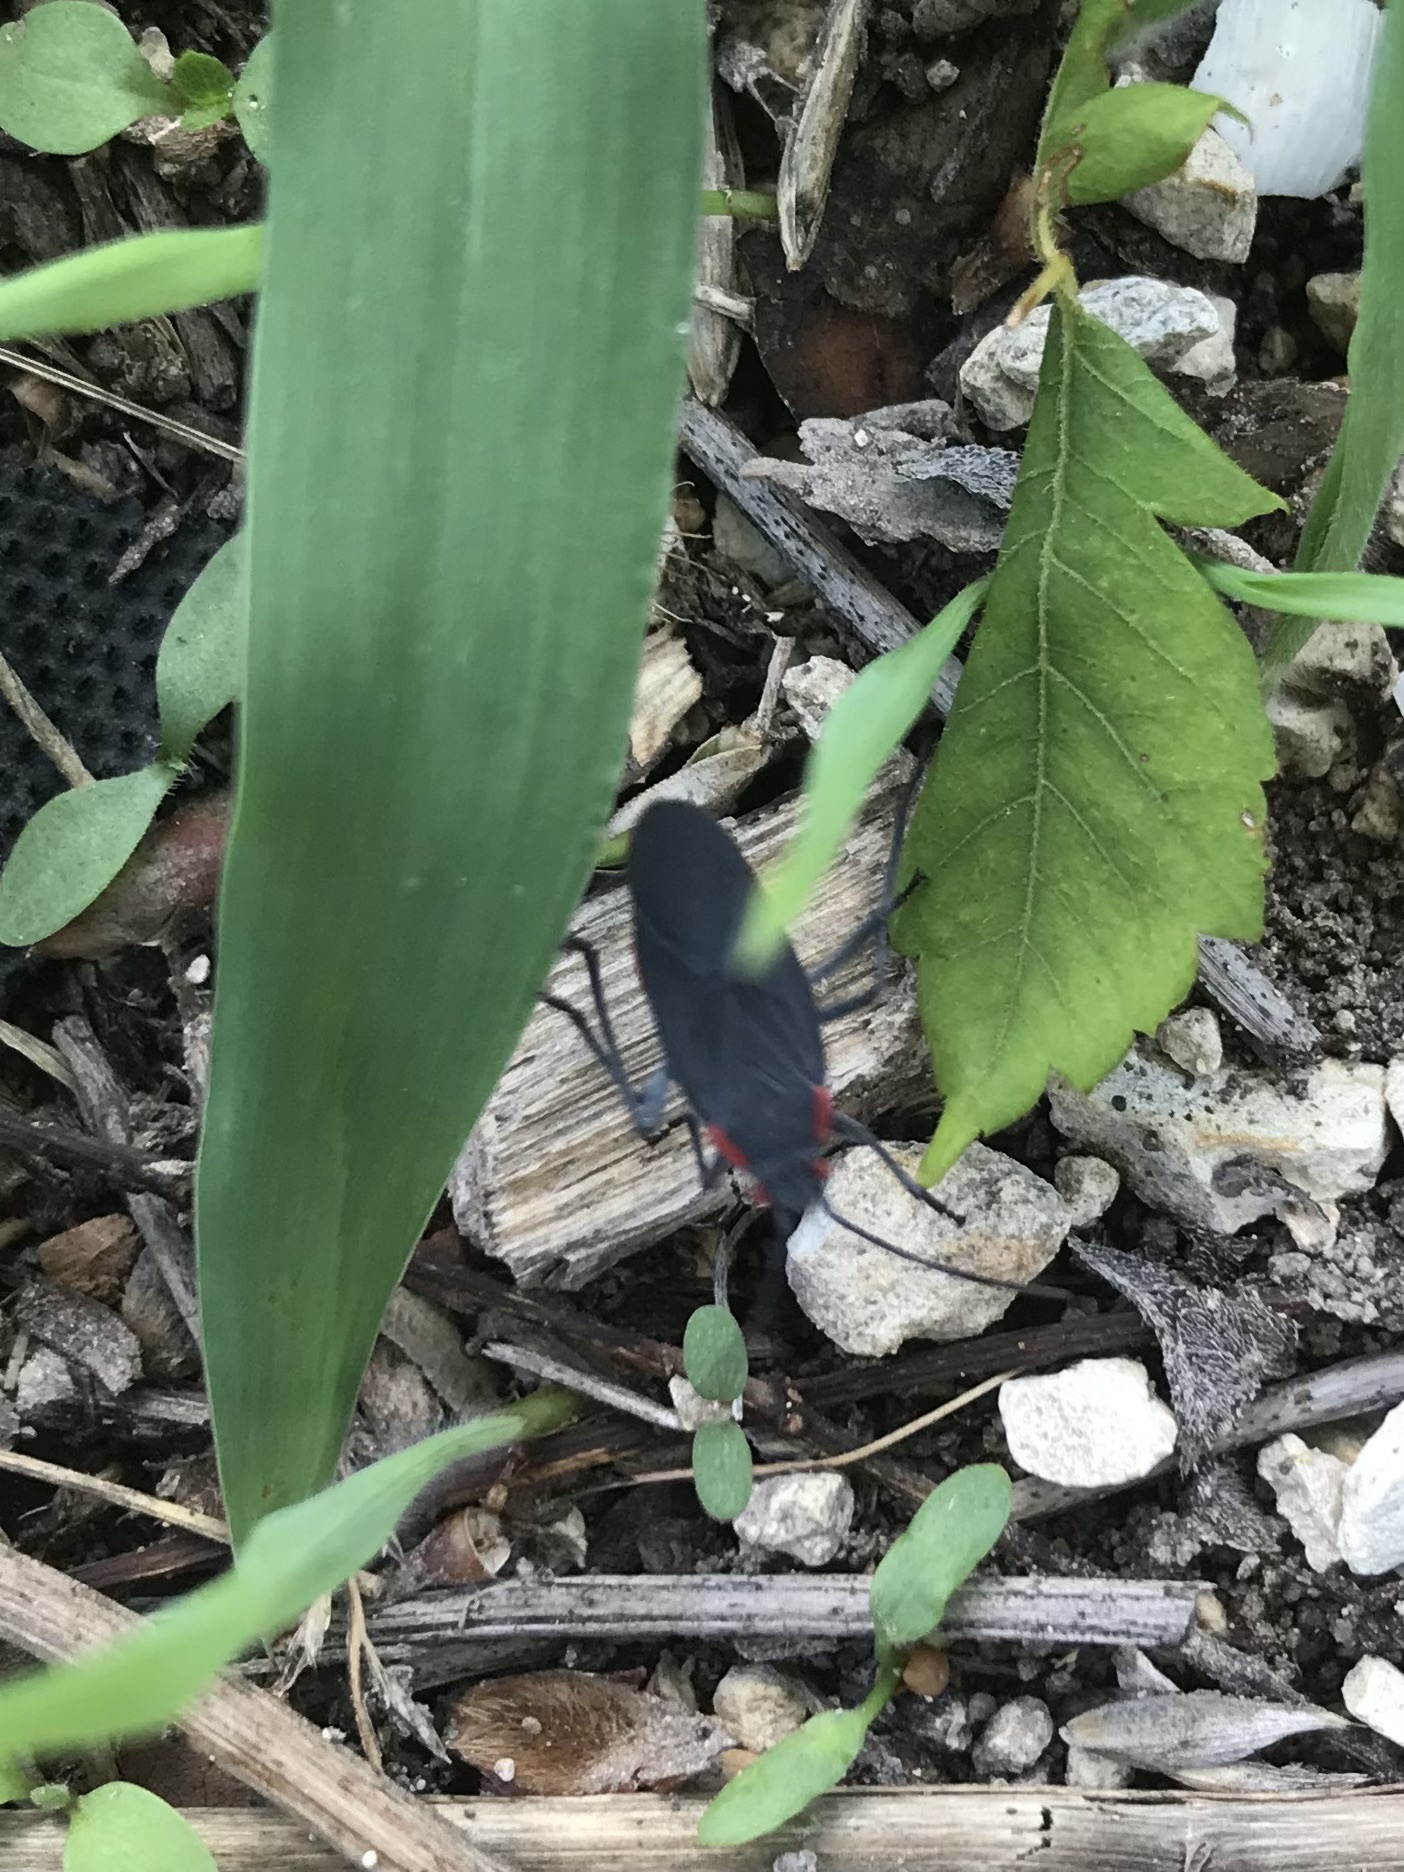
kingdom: Animalia
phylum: Arthropoda
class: Insecta
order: Hemiptera
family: Rhopalidae
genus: Jadera
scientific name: Jadera haematoloma
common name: Red-shouldered bug
